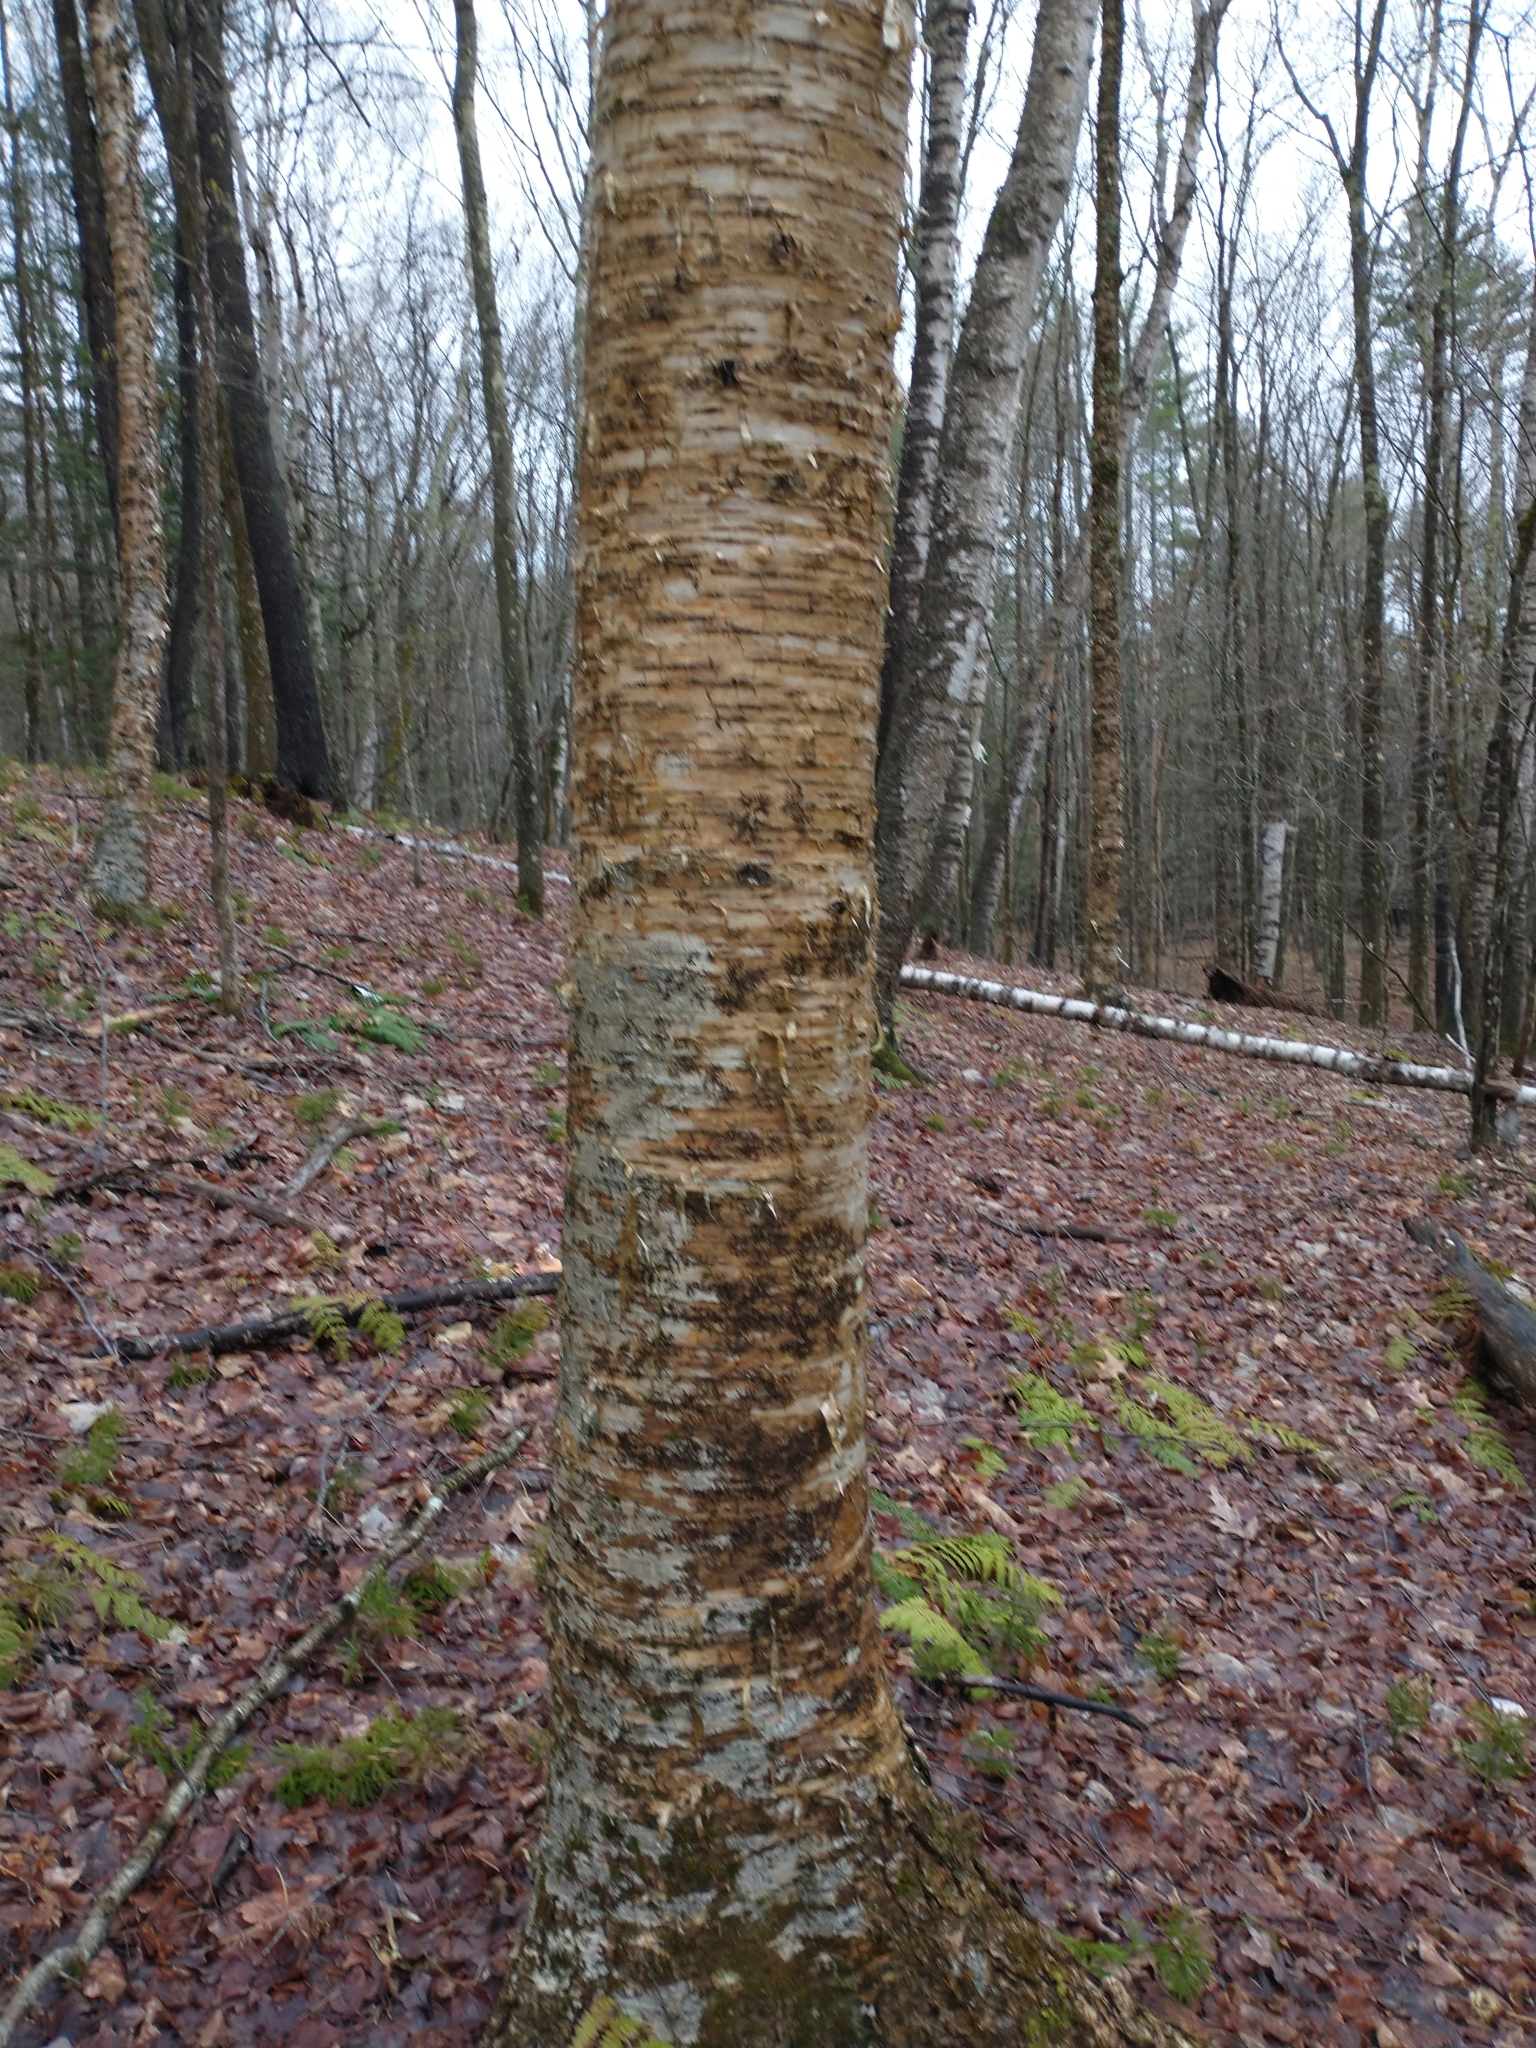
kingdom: Plantae
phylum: Tracheophyta
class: Magnoliopsida
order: Fagales
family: Betulaceae
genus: Betula
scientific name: Betula alleghaniensis
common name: Yellow birch
